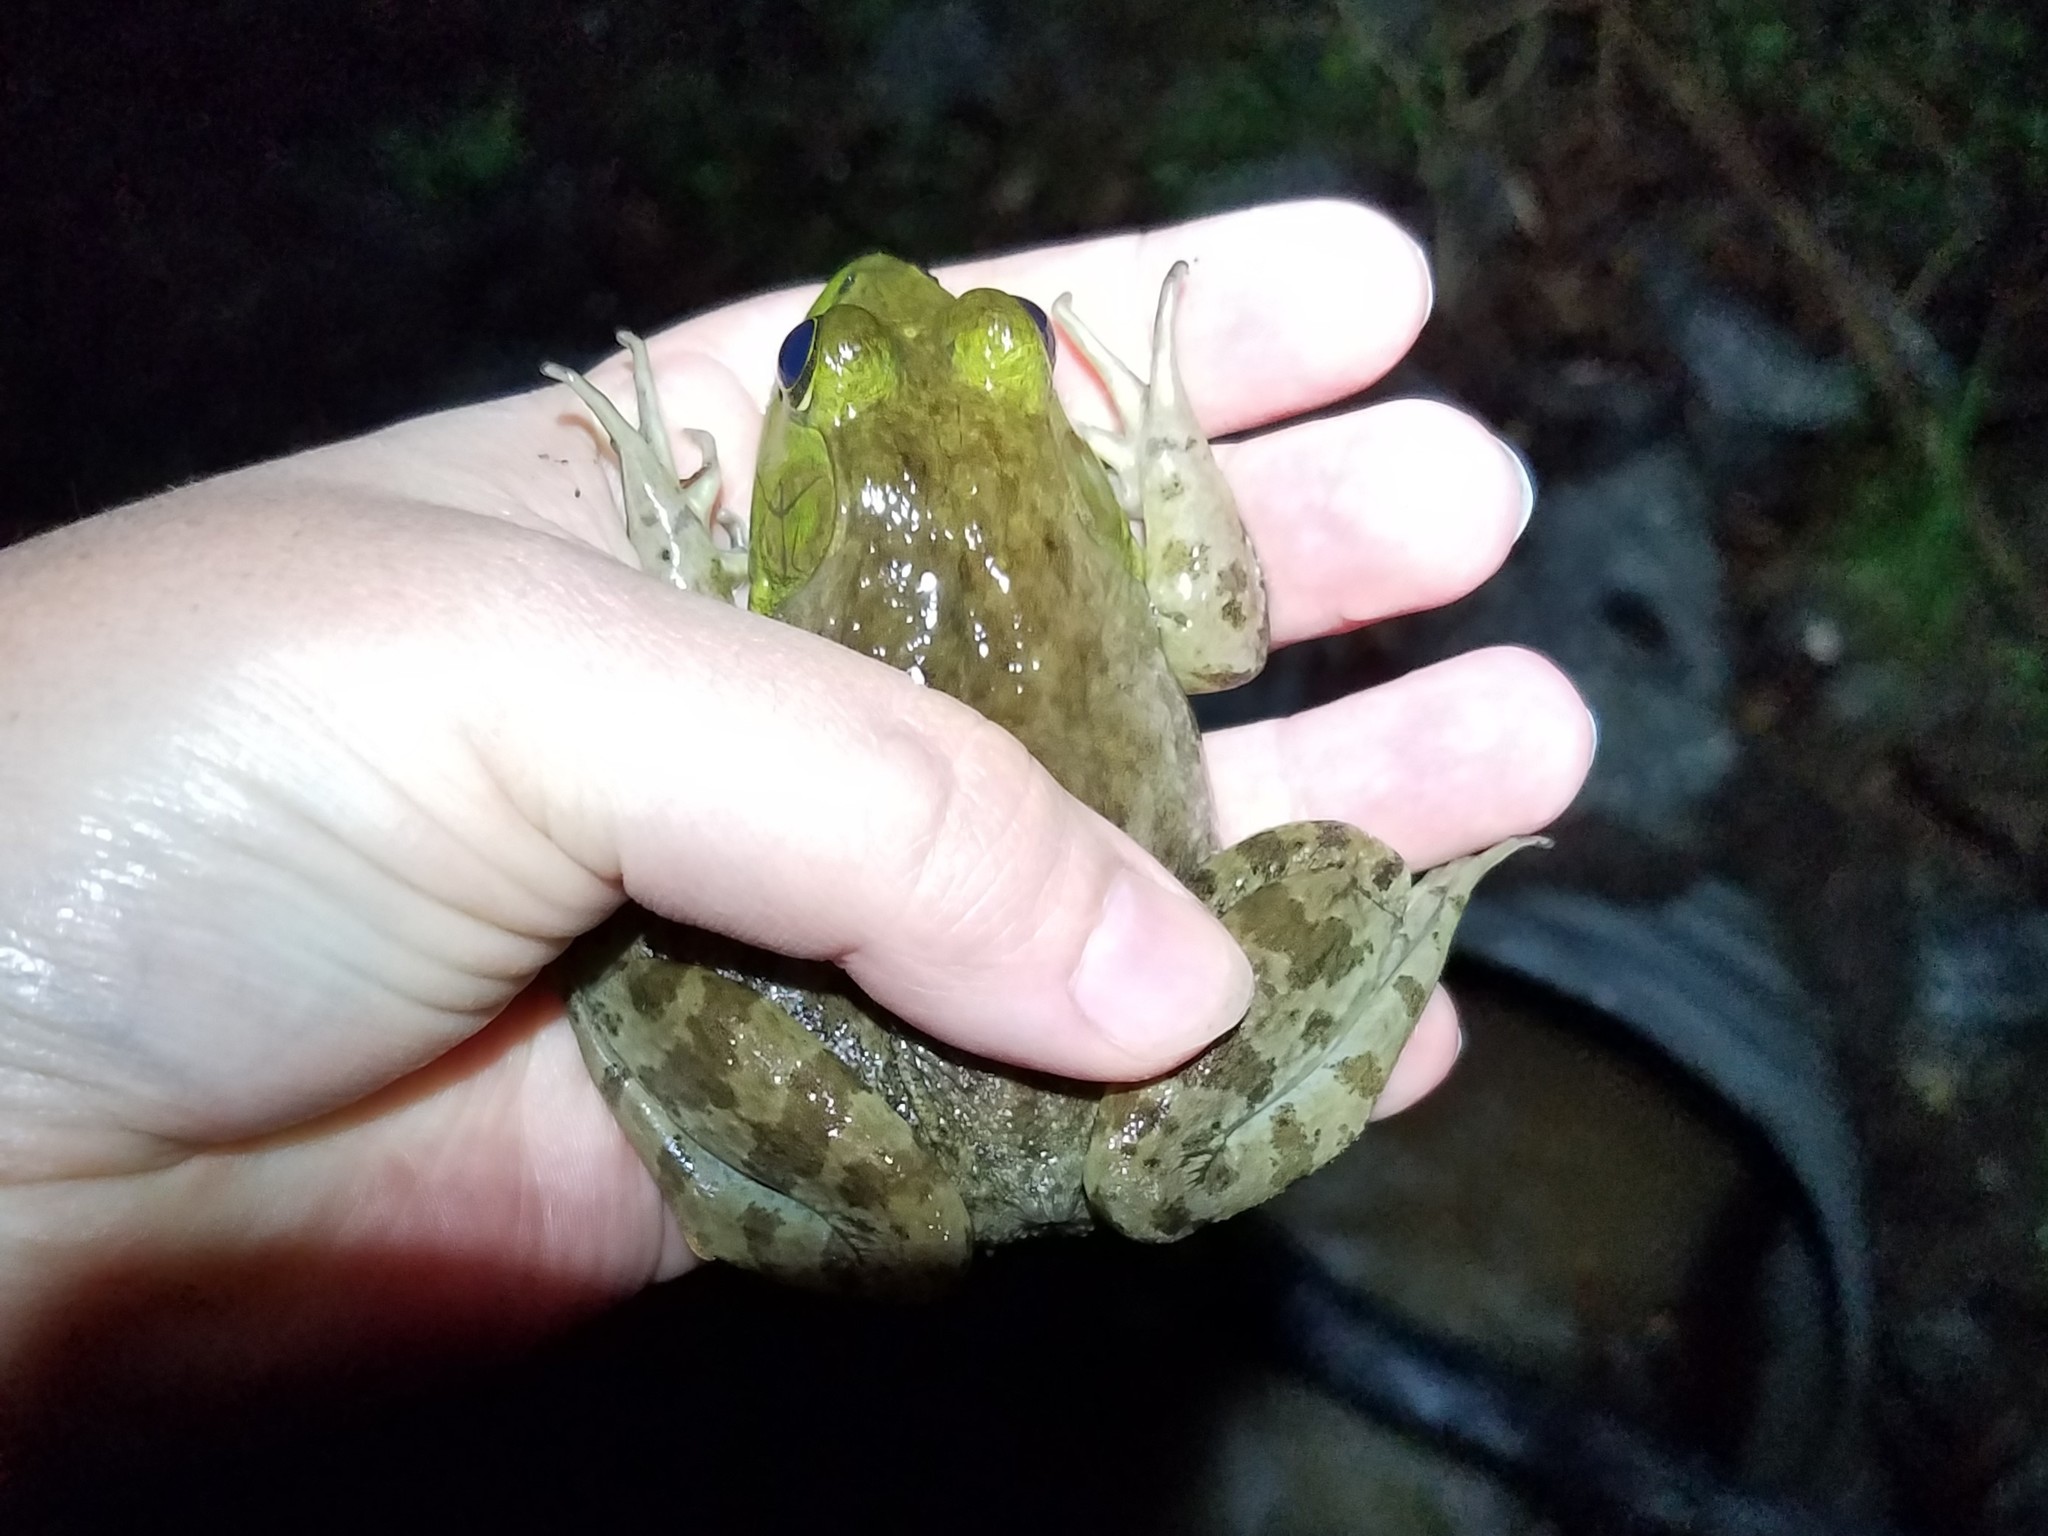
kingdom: Animalia
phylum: Chordata
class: Amphibia
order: Anura
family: Ranidae
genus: Lithobates
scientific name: Lithobates catesbeianus
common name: American bullfrog
